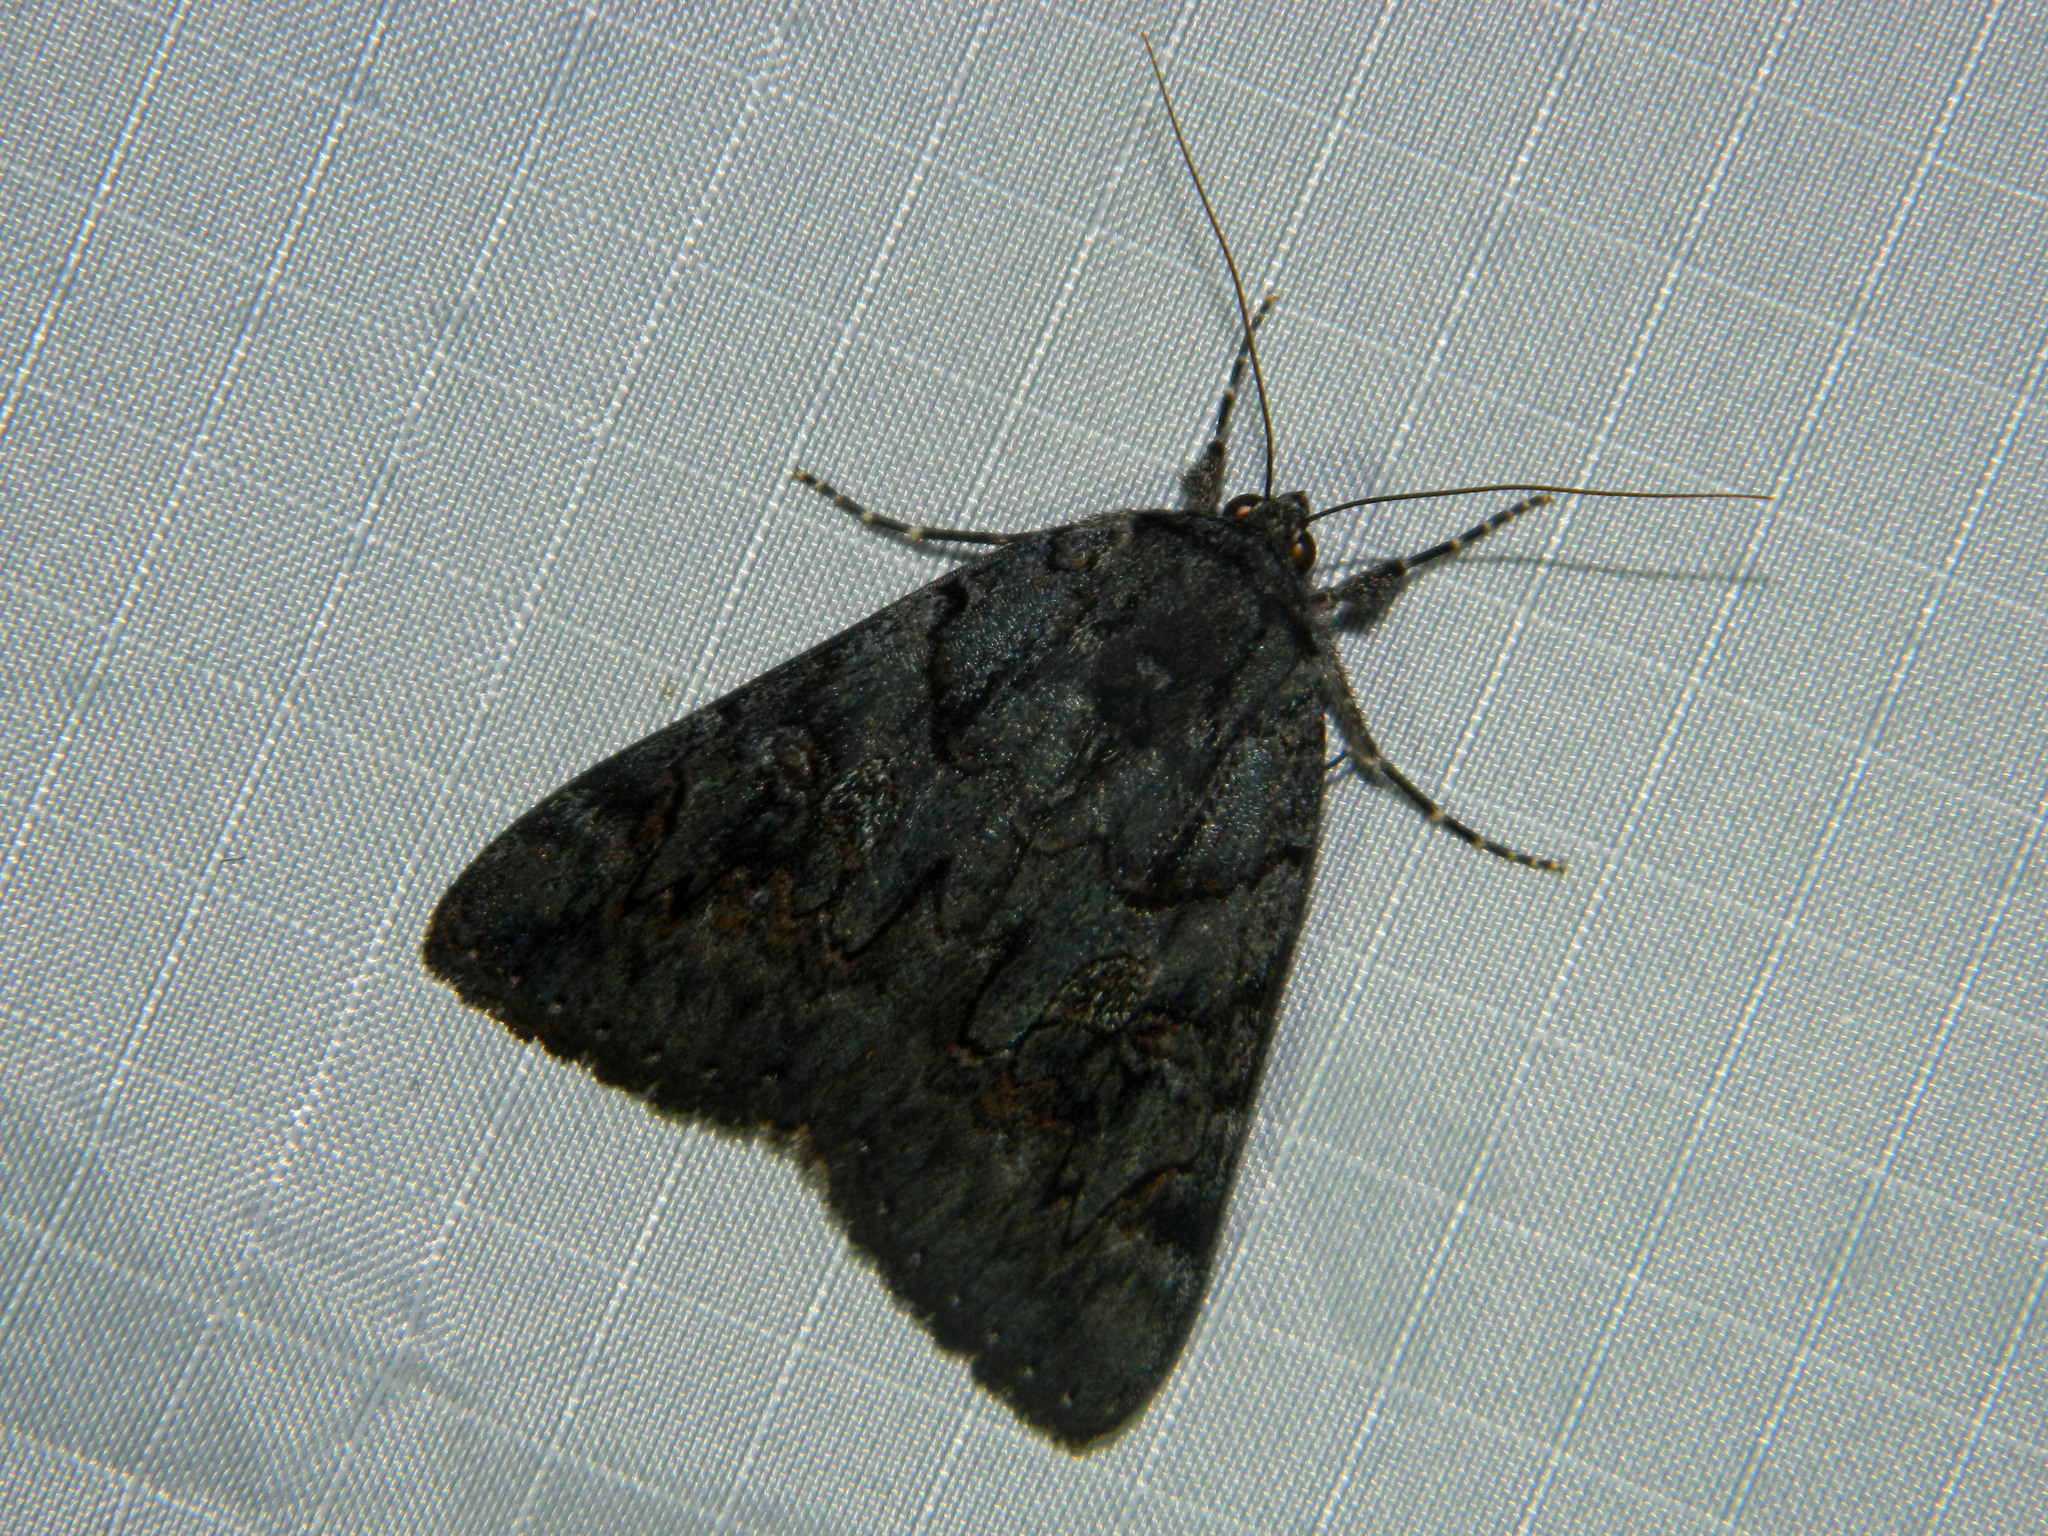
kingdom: Animalia
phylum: Arthropoda
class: Insecta
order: Lepidoptera
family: Erebidae
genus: Catocala
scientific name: Catocala antinympha
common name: Sweetfern underwing
